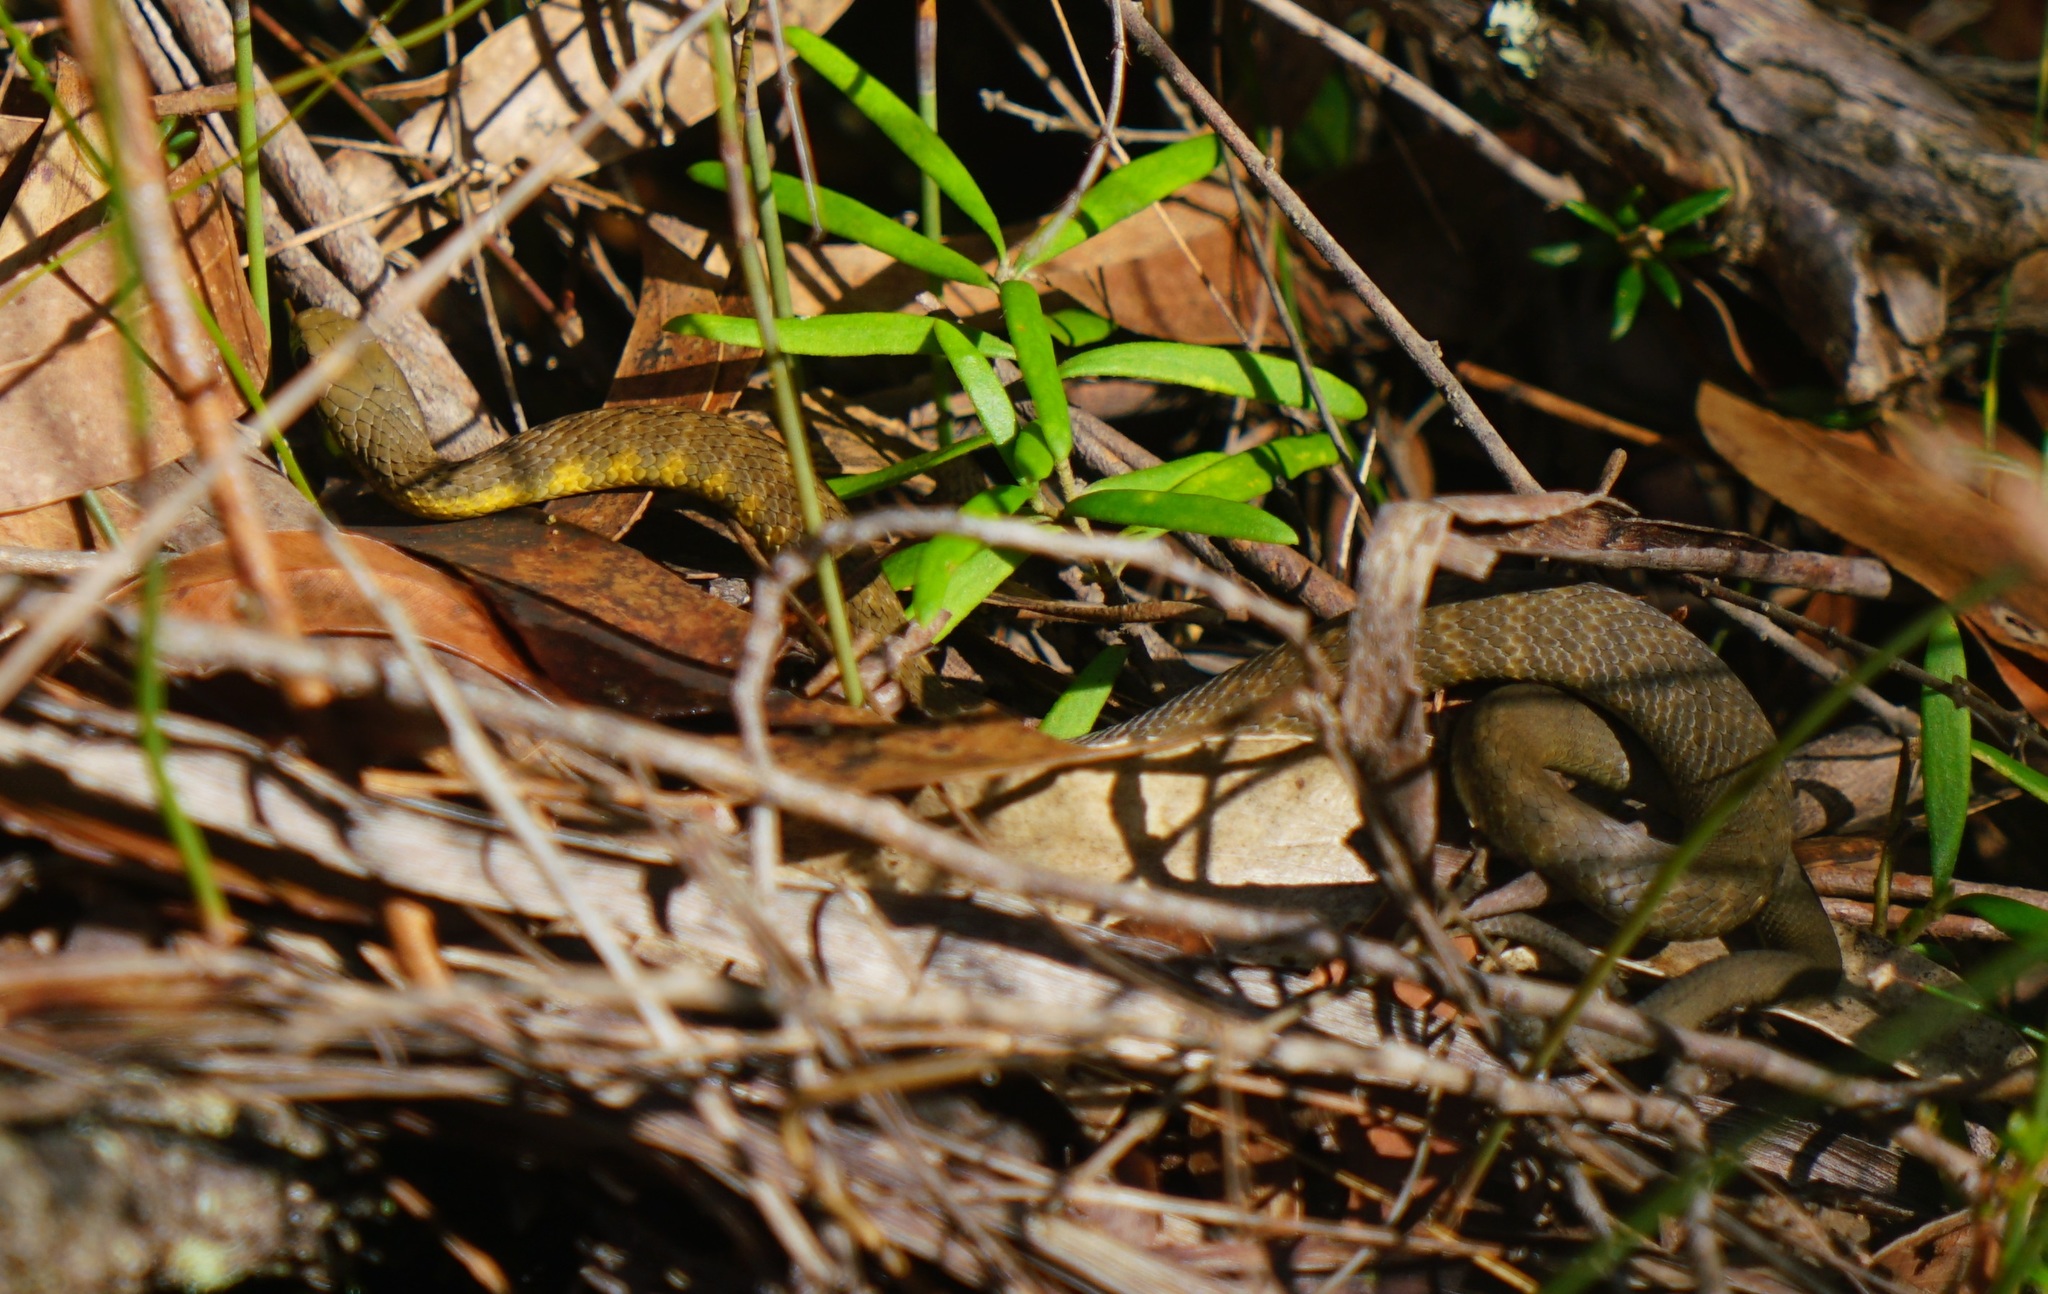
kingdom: Animalia
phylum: Chordata
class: Squamata
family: Elapidae
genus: Notechis
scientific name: Notechis scutatus
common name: Mainland tiger snake
